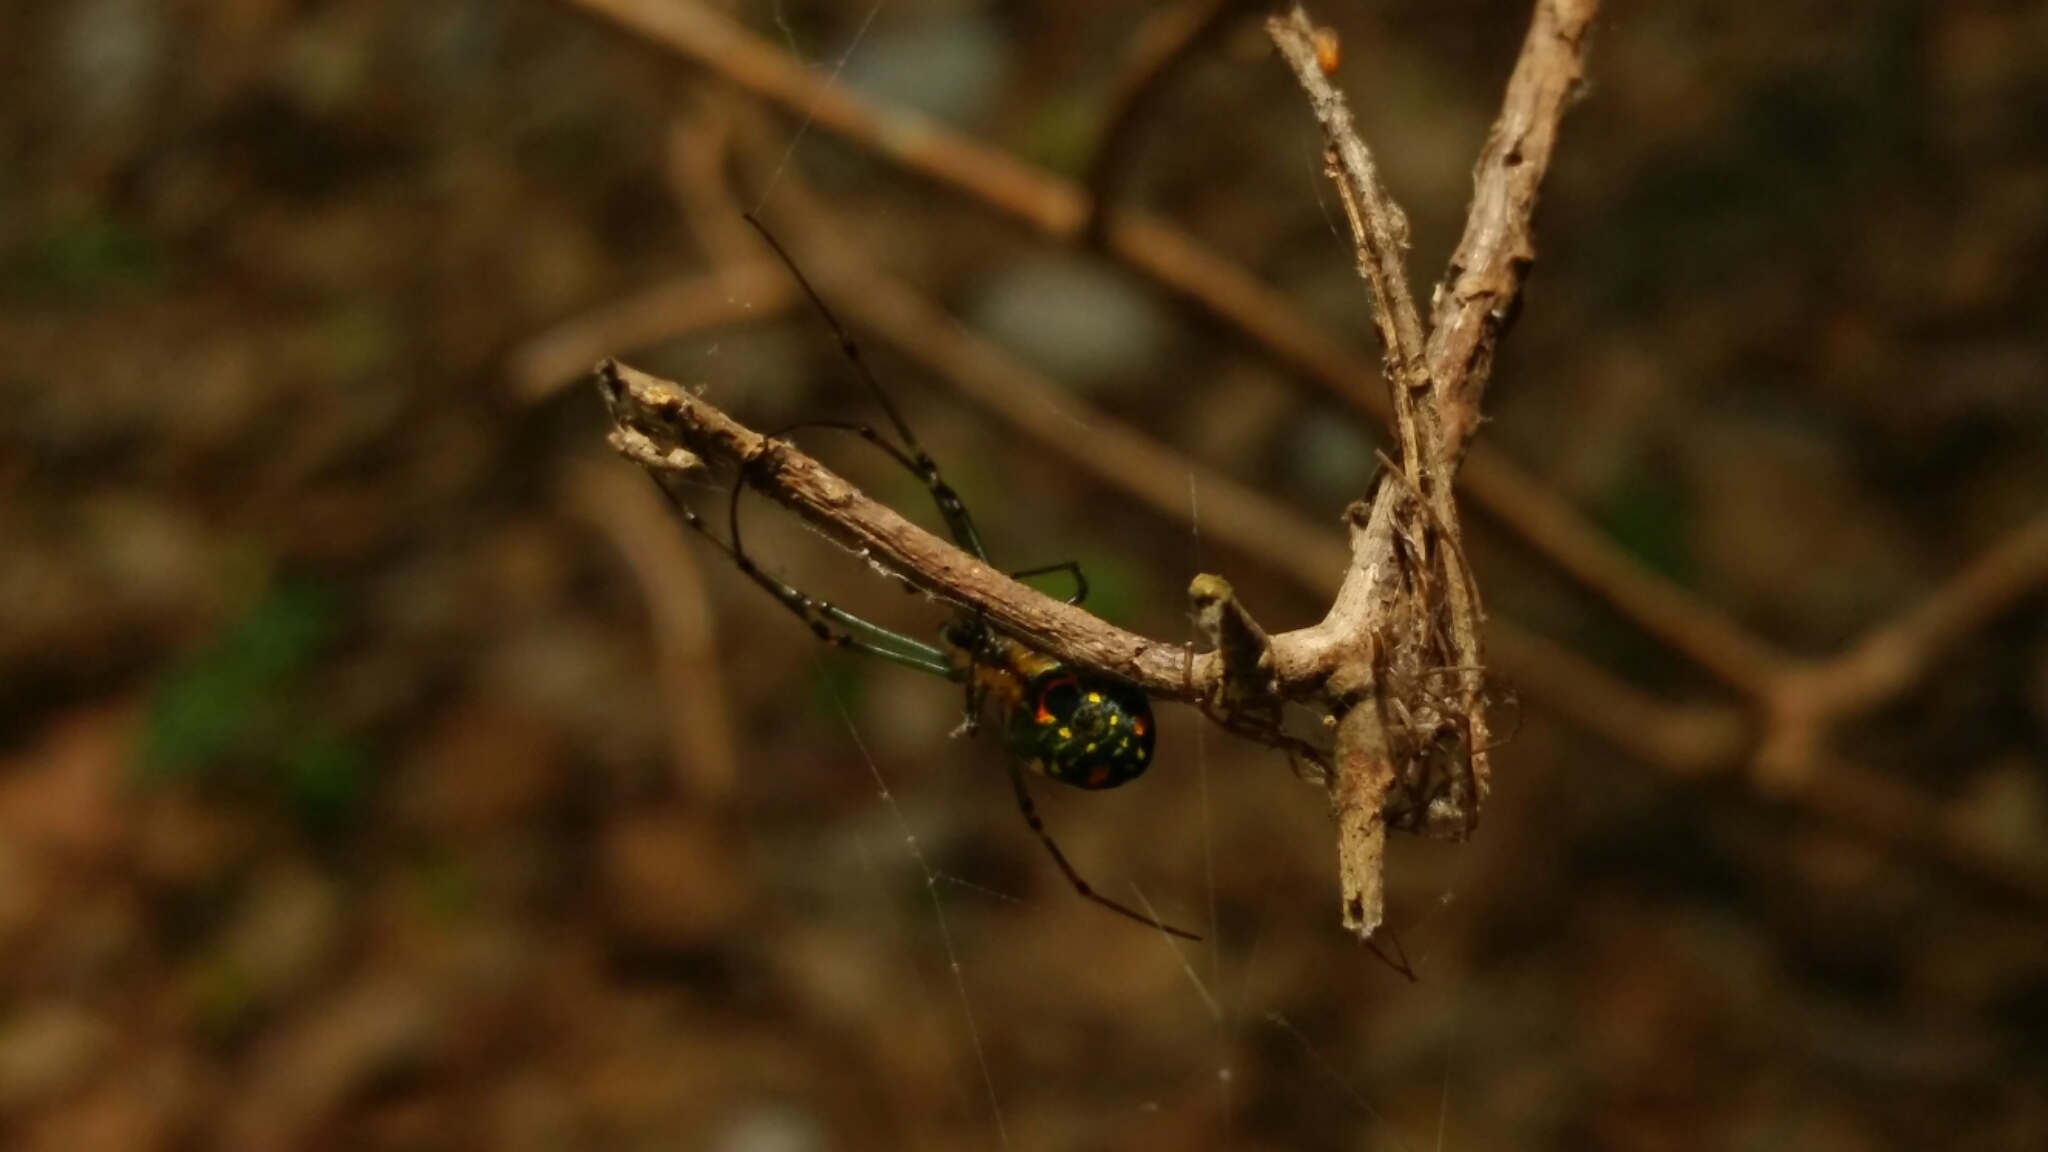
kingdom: Animalia
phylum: Arthropoda
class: Arachnida
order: Araneae
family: Tetragnathidae
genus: Leucauge
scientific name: Leucauge argyrobapta
